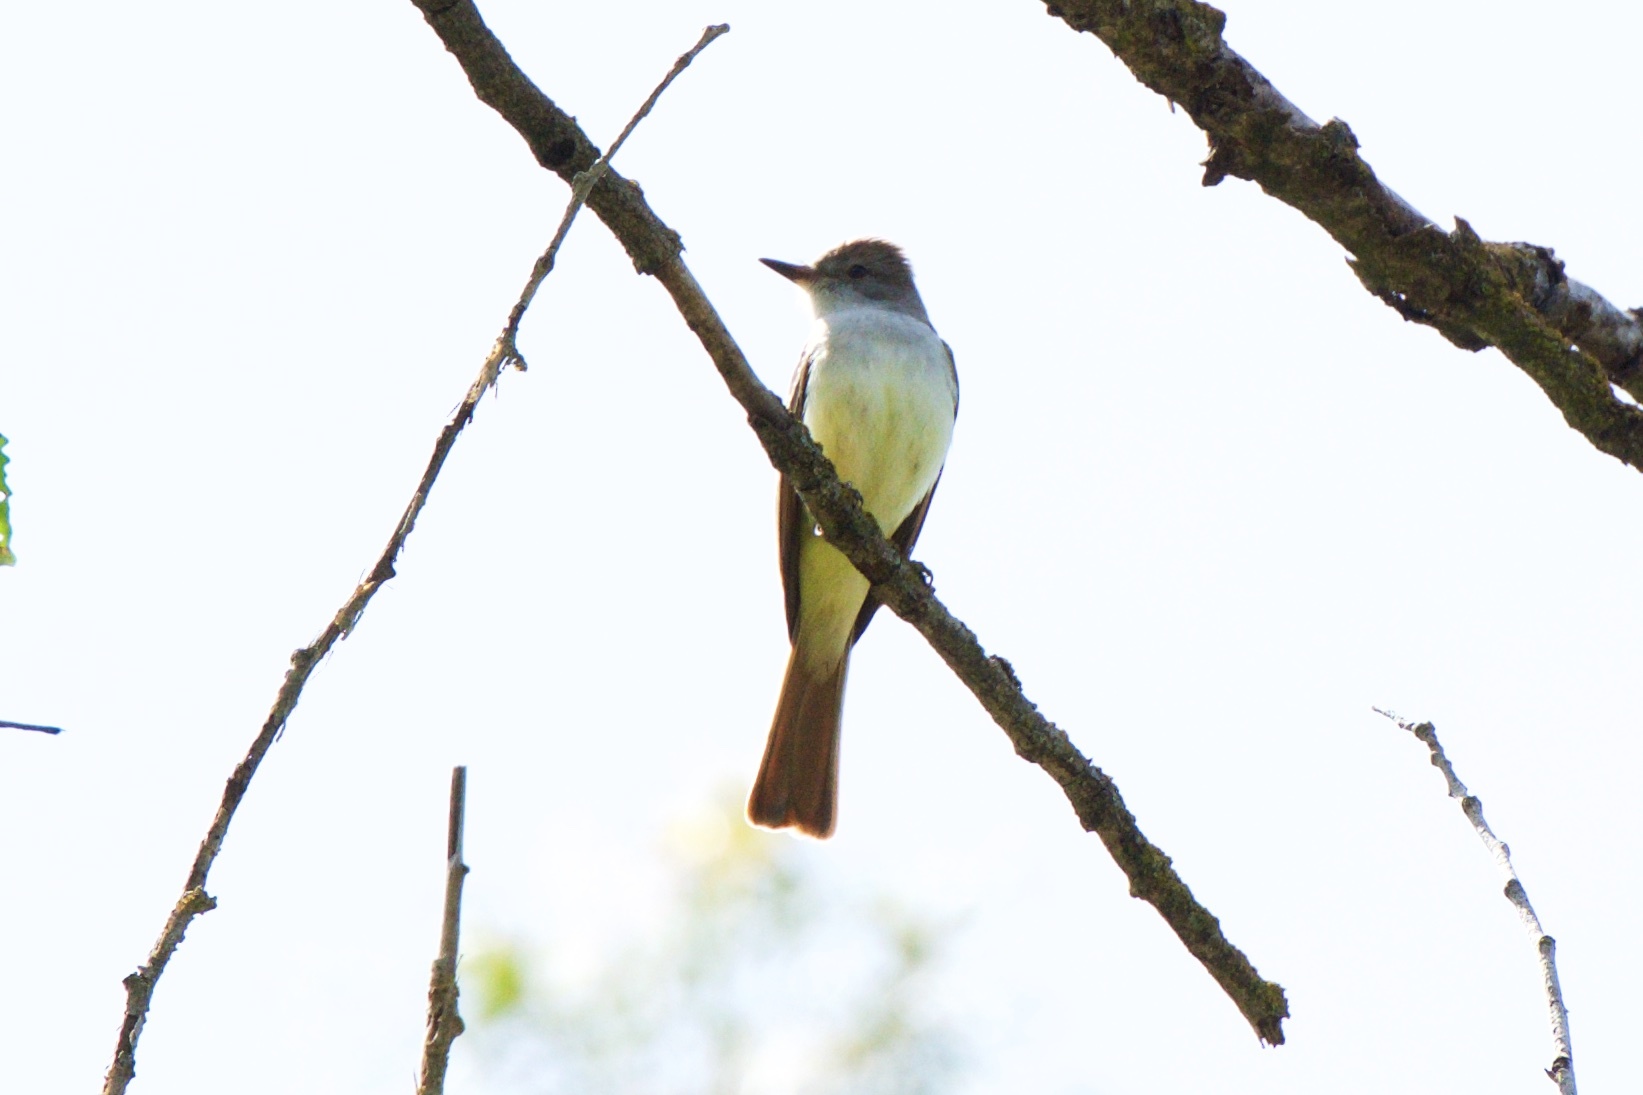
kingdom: Animalia
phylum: Chordata
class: Aves
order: Passeriformes
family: Tyrannidae
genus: Myiarchus
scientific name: Myiarchus cinerascens
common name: Ash-throated flycatcher
